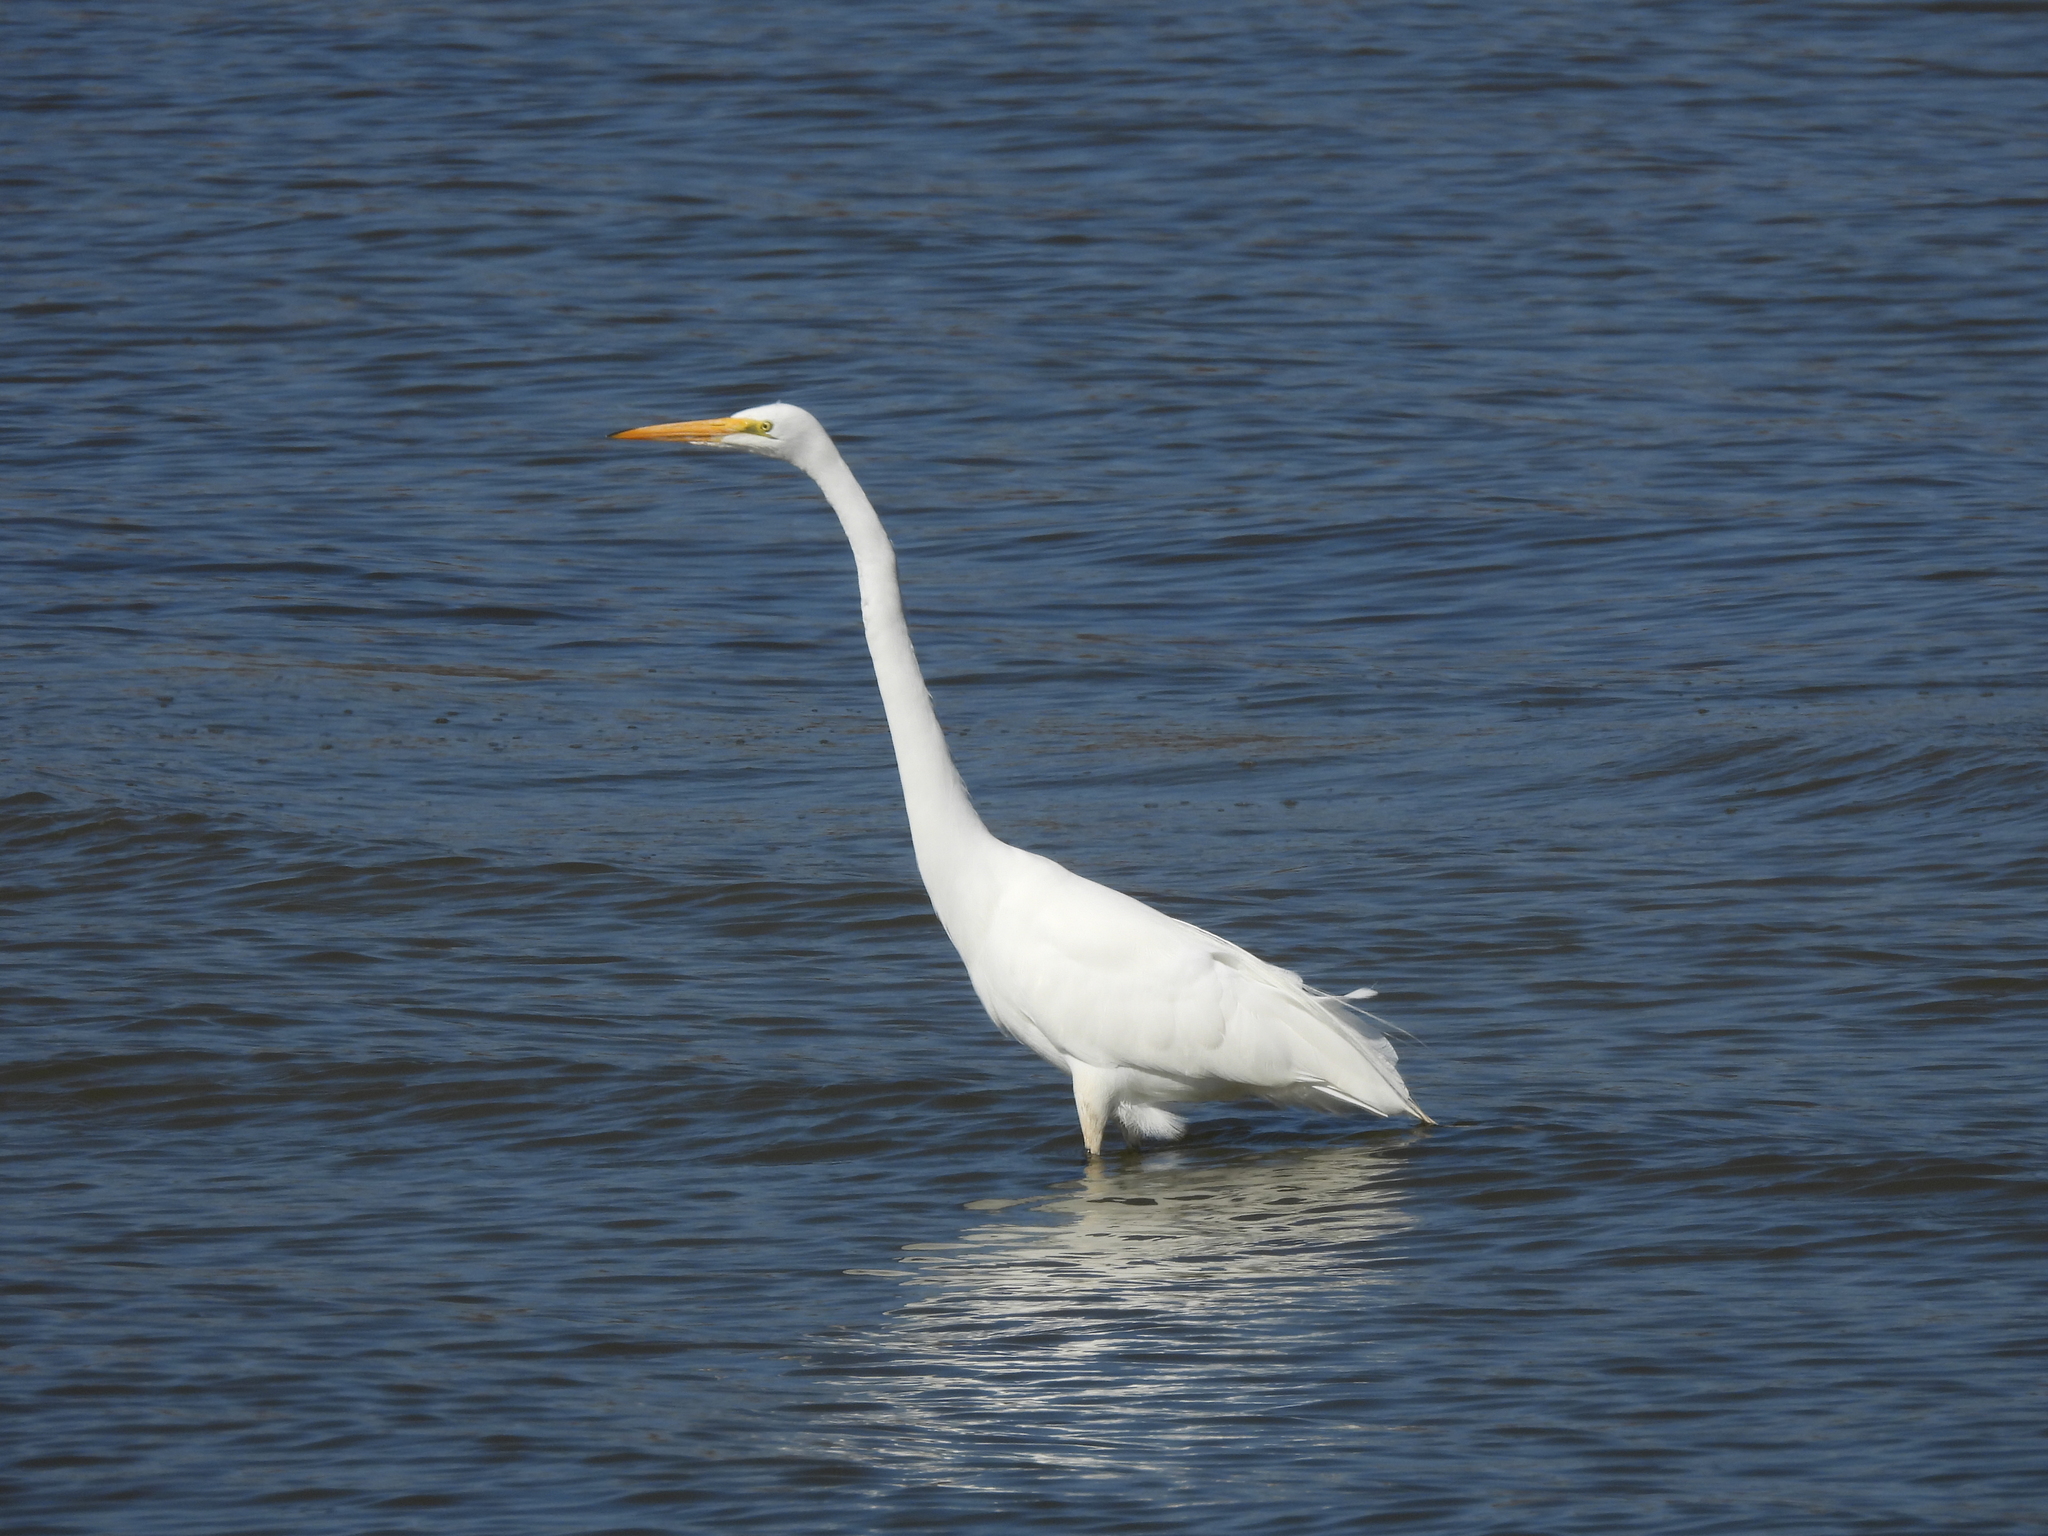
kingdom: Animalia
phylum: Chordata
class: Aves
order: Pelecaniformes
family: Ardeidae
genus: Ardea
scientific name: Ardea alba
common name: Great egret
